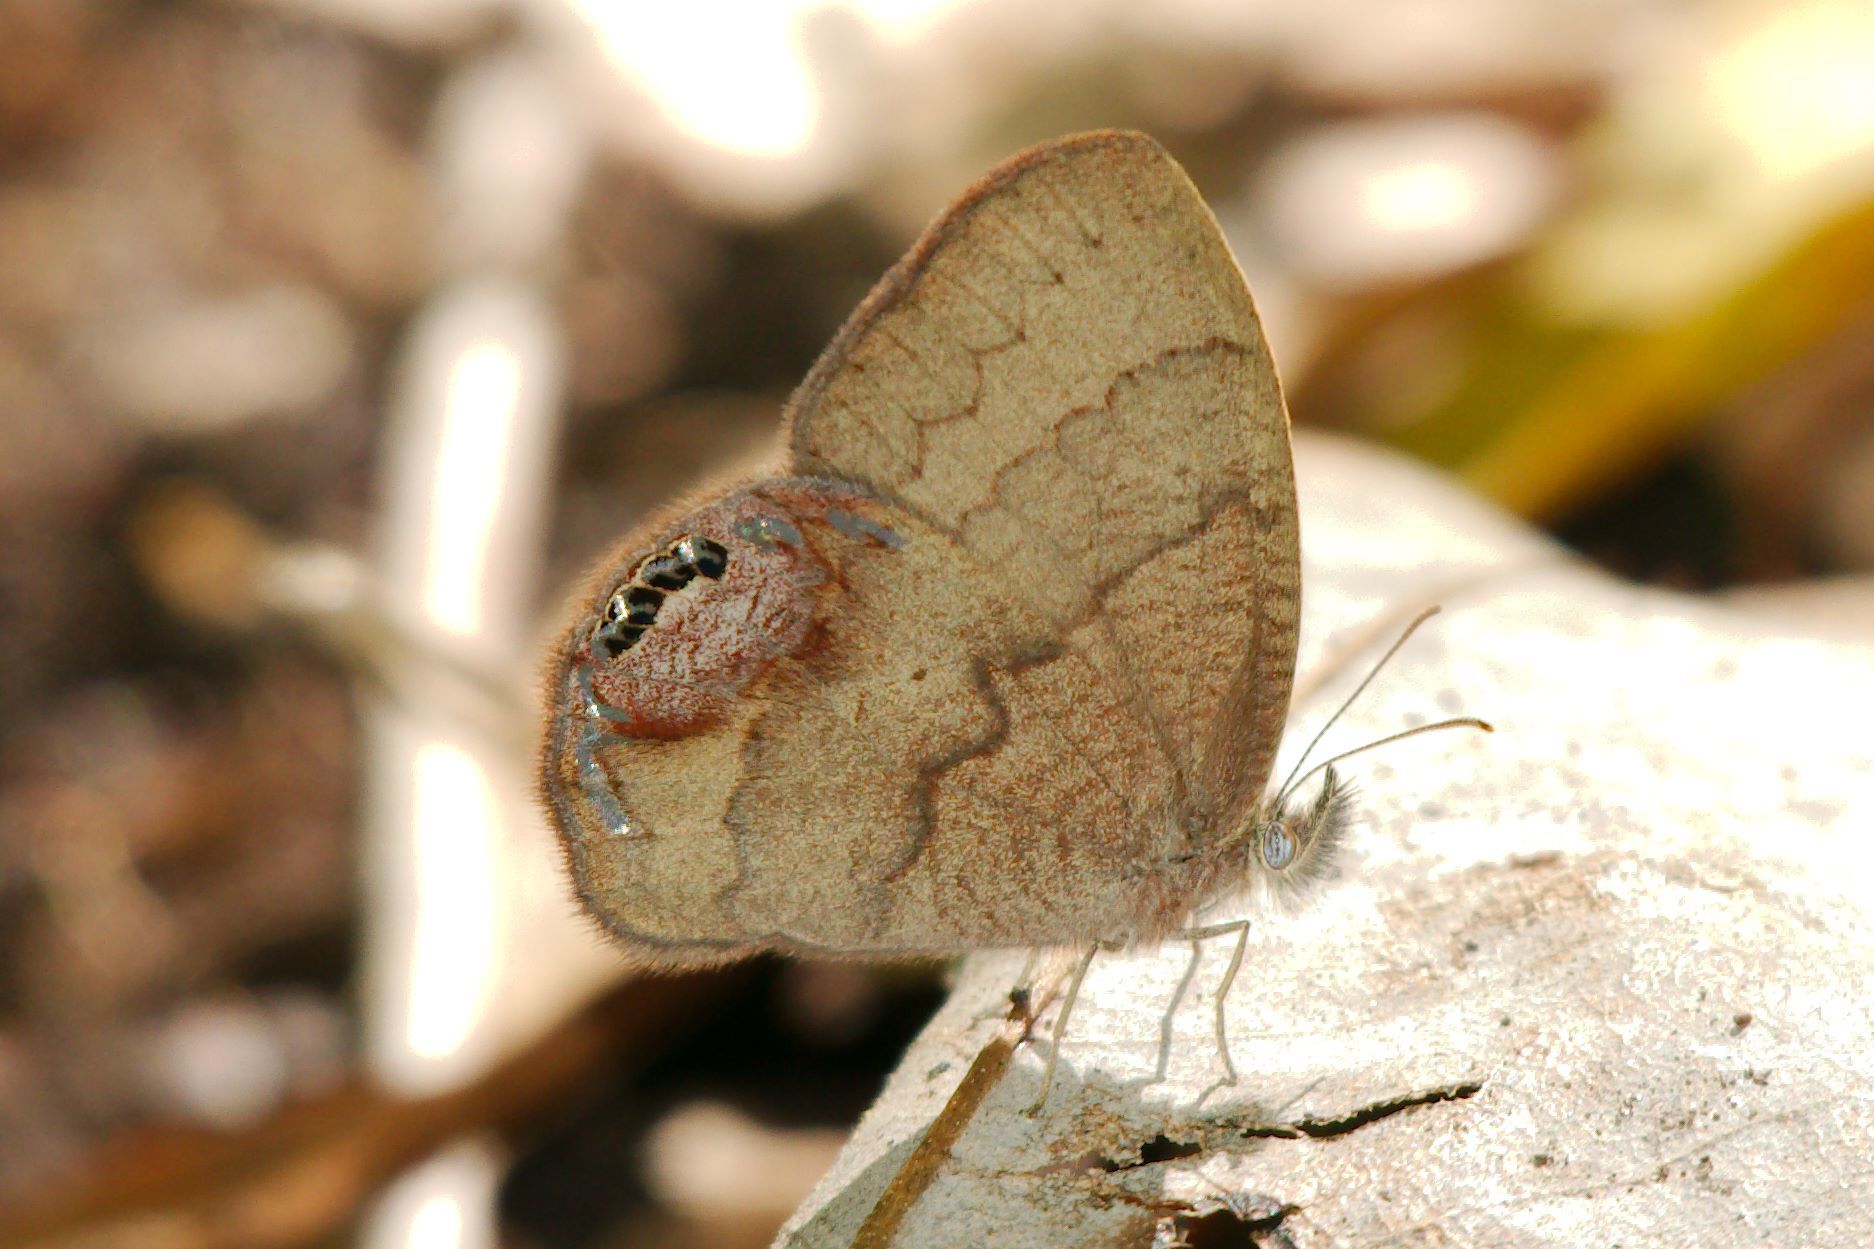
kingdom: Animalia
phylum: Arthropoda
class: Insecta
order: Lepidoptera
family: Nymphalidae
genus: Euptychia
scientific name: Euptychia cornelius
